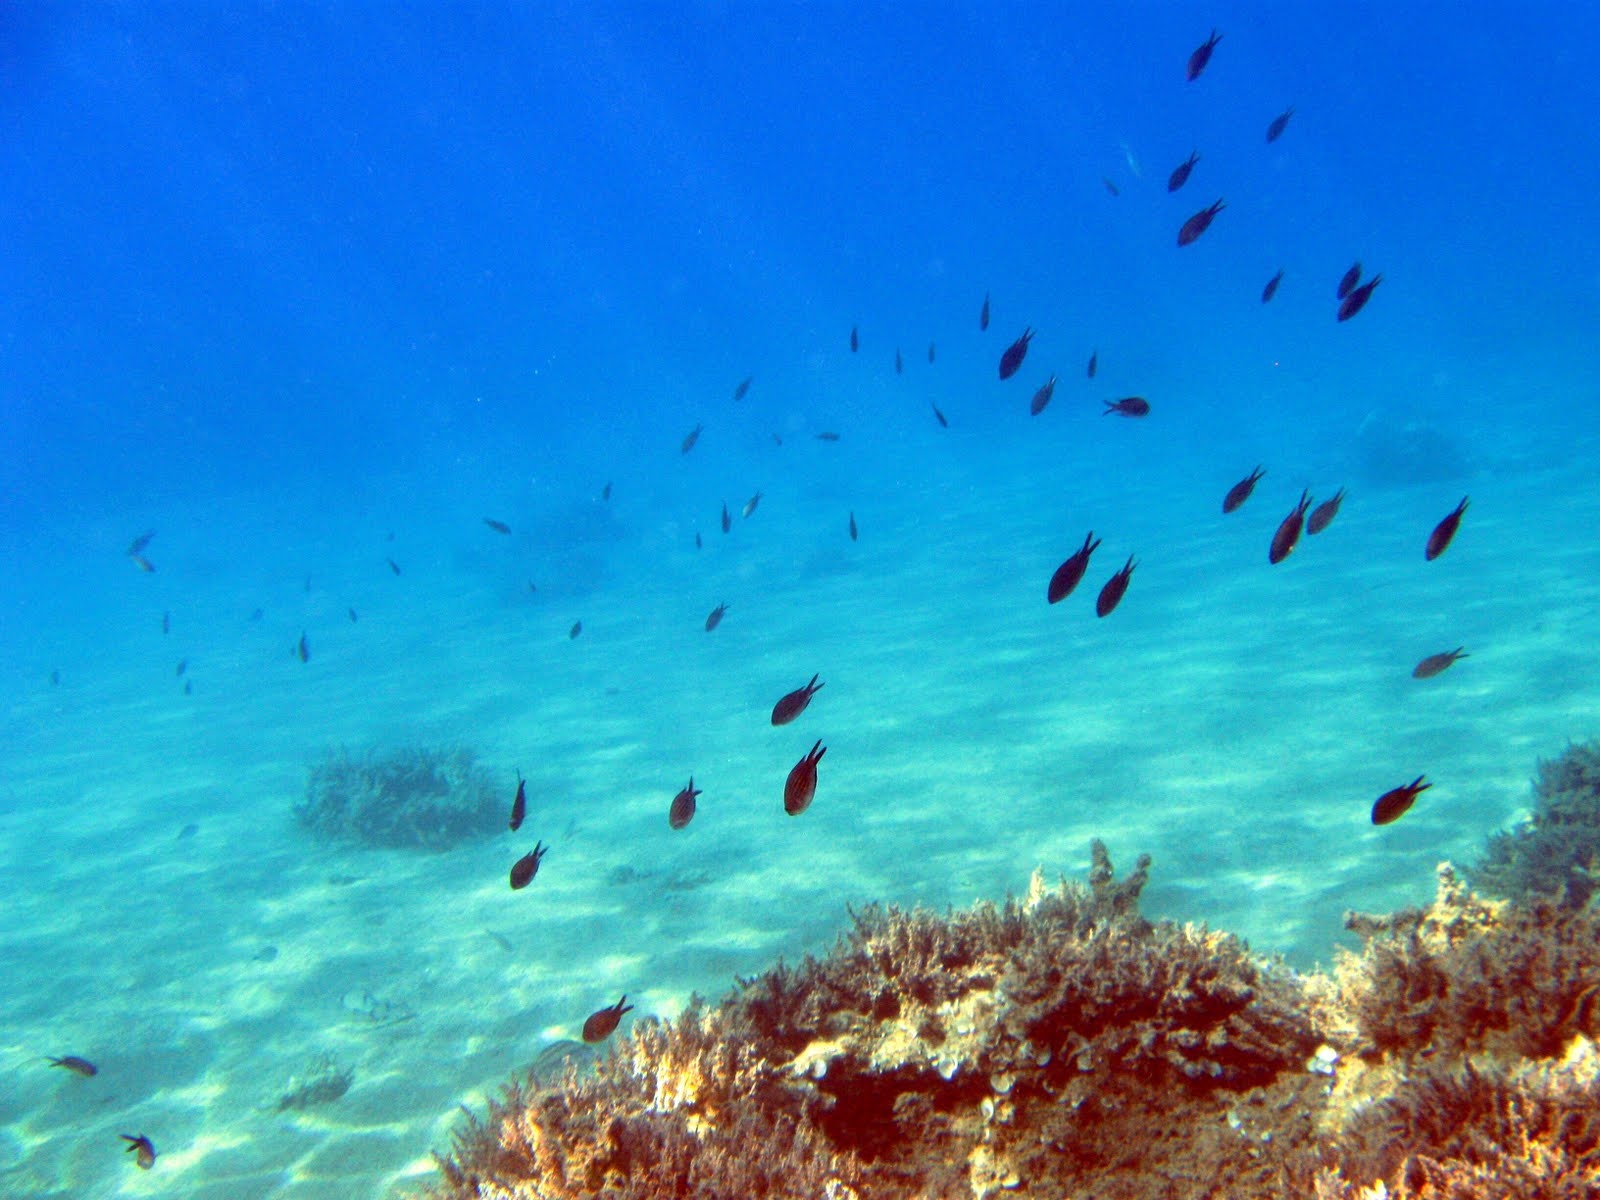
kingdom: Animalia
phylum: Chordata
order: Perciformes
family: Pomacentridae
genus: Chromis
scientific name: Chromis chromis
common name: Damselfish
